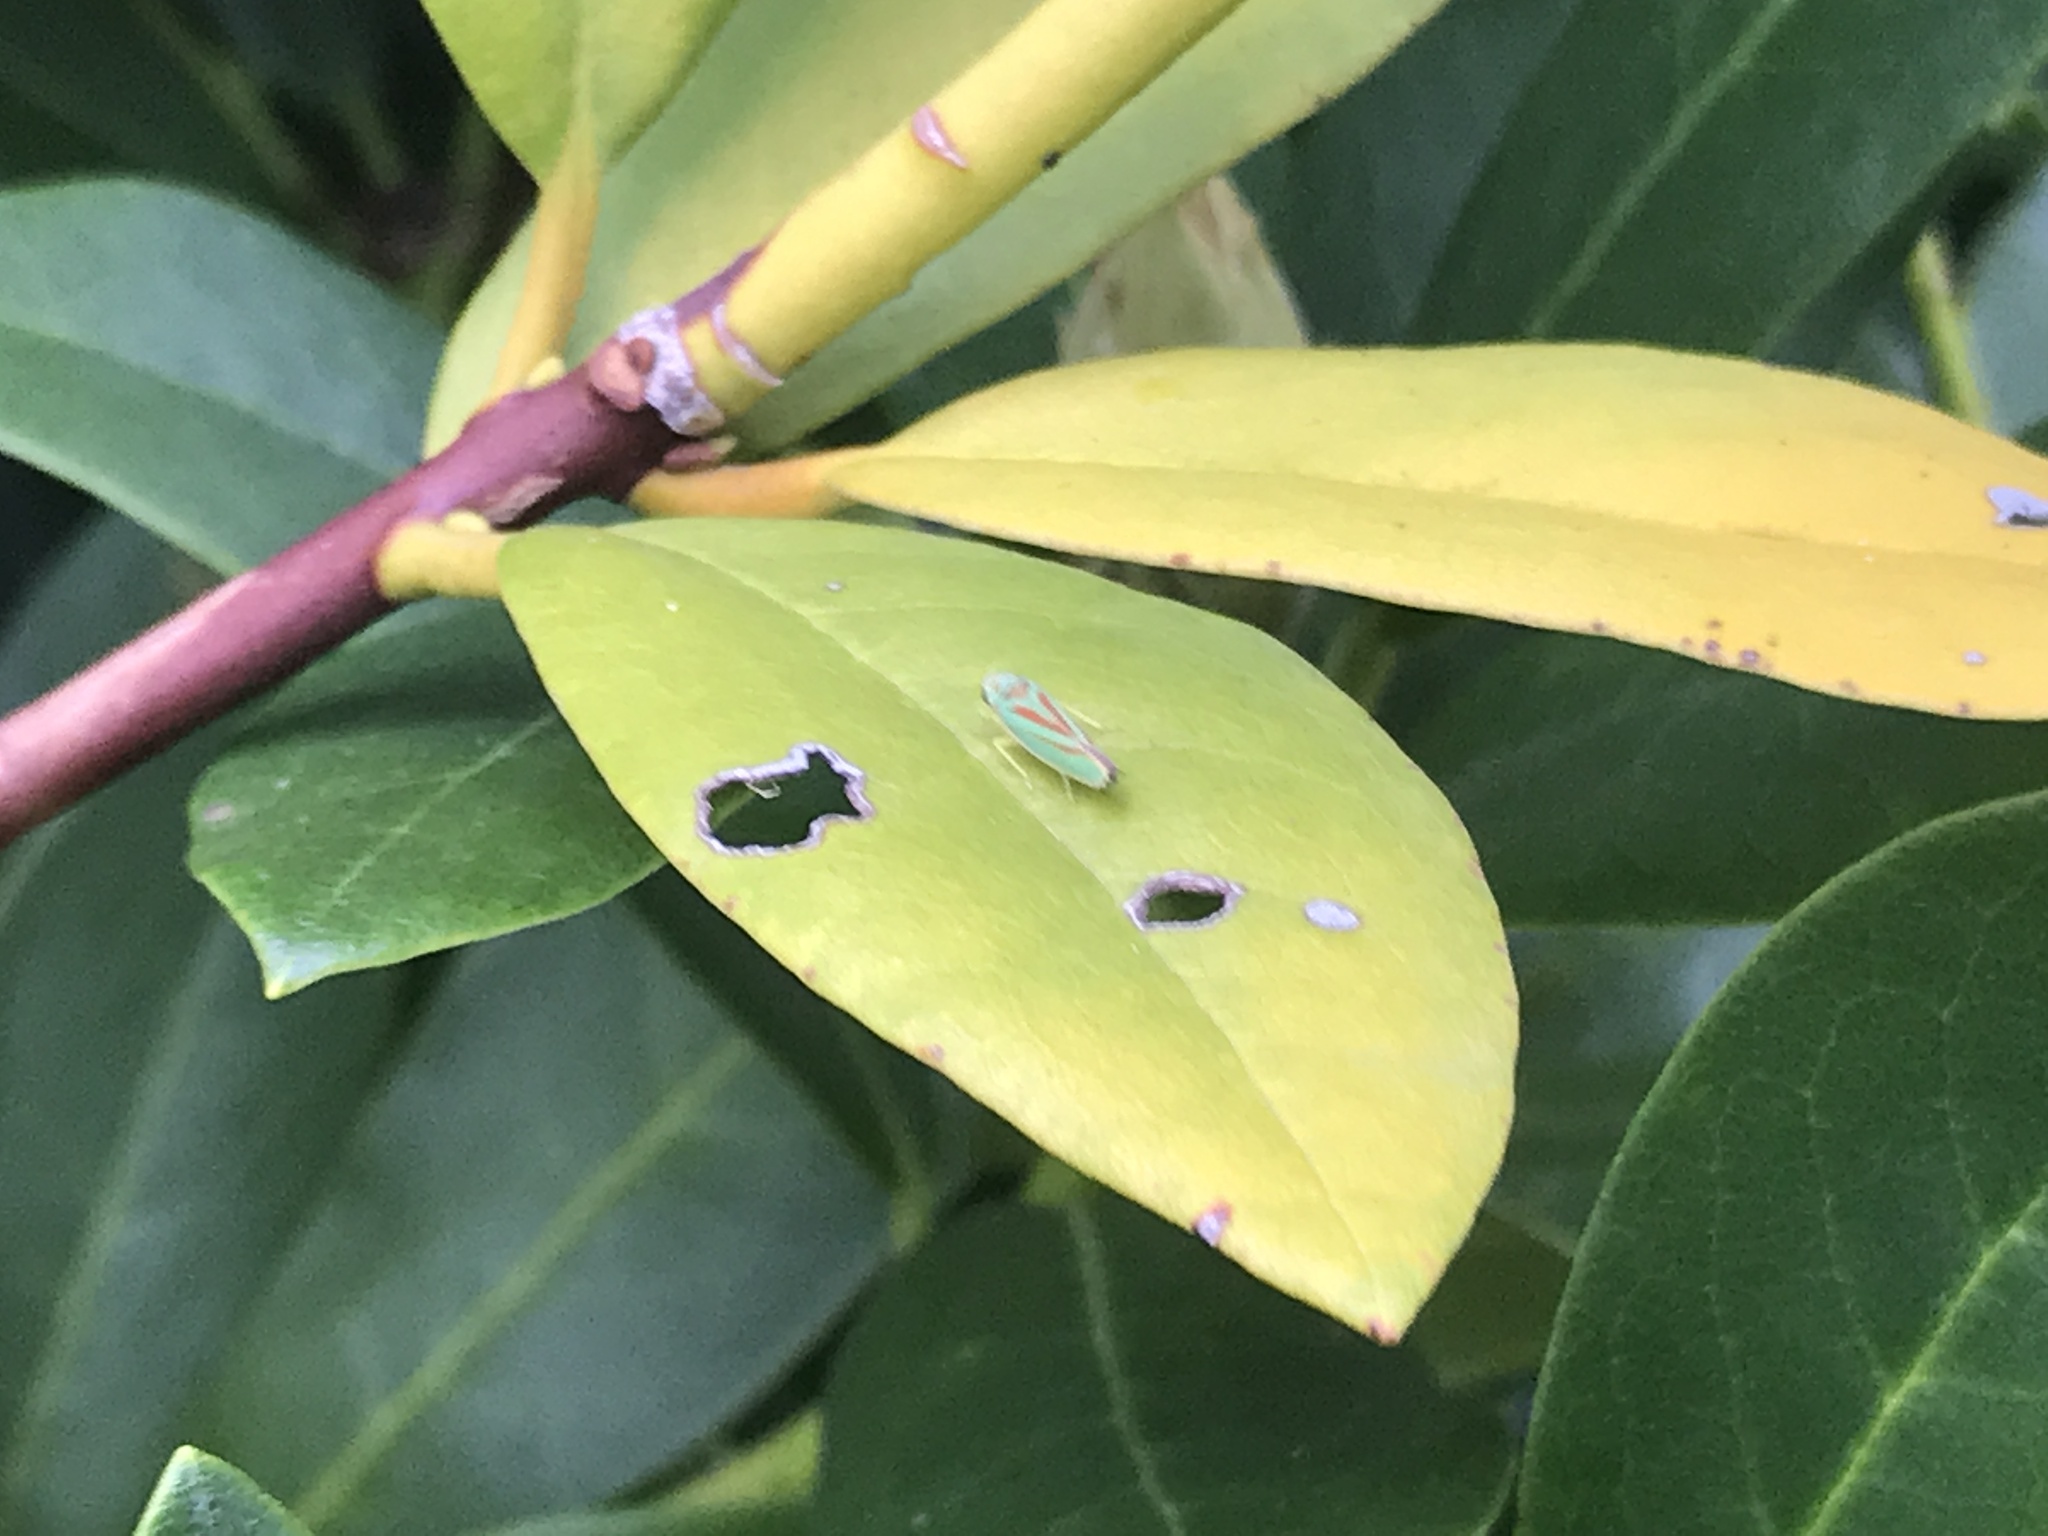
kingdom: Animalia
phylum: Arthropoda
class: Insecta
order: Hemiptera
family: Cicadellidae
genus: Graphocephala
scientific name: Graphocephala fennahi
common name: Rhododendron leafhopper
